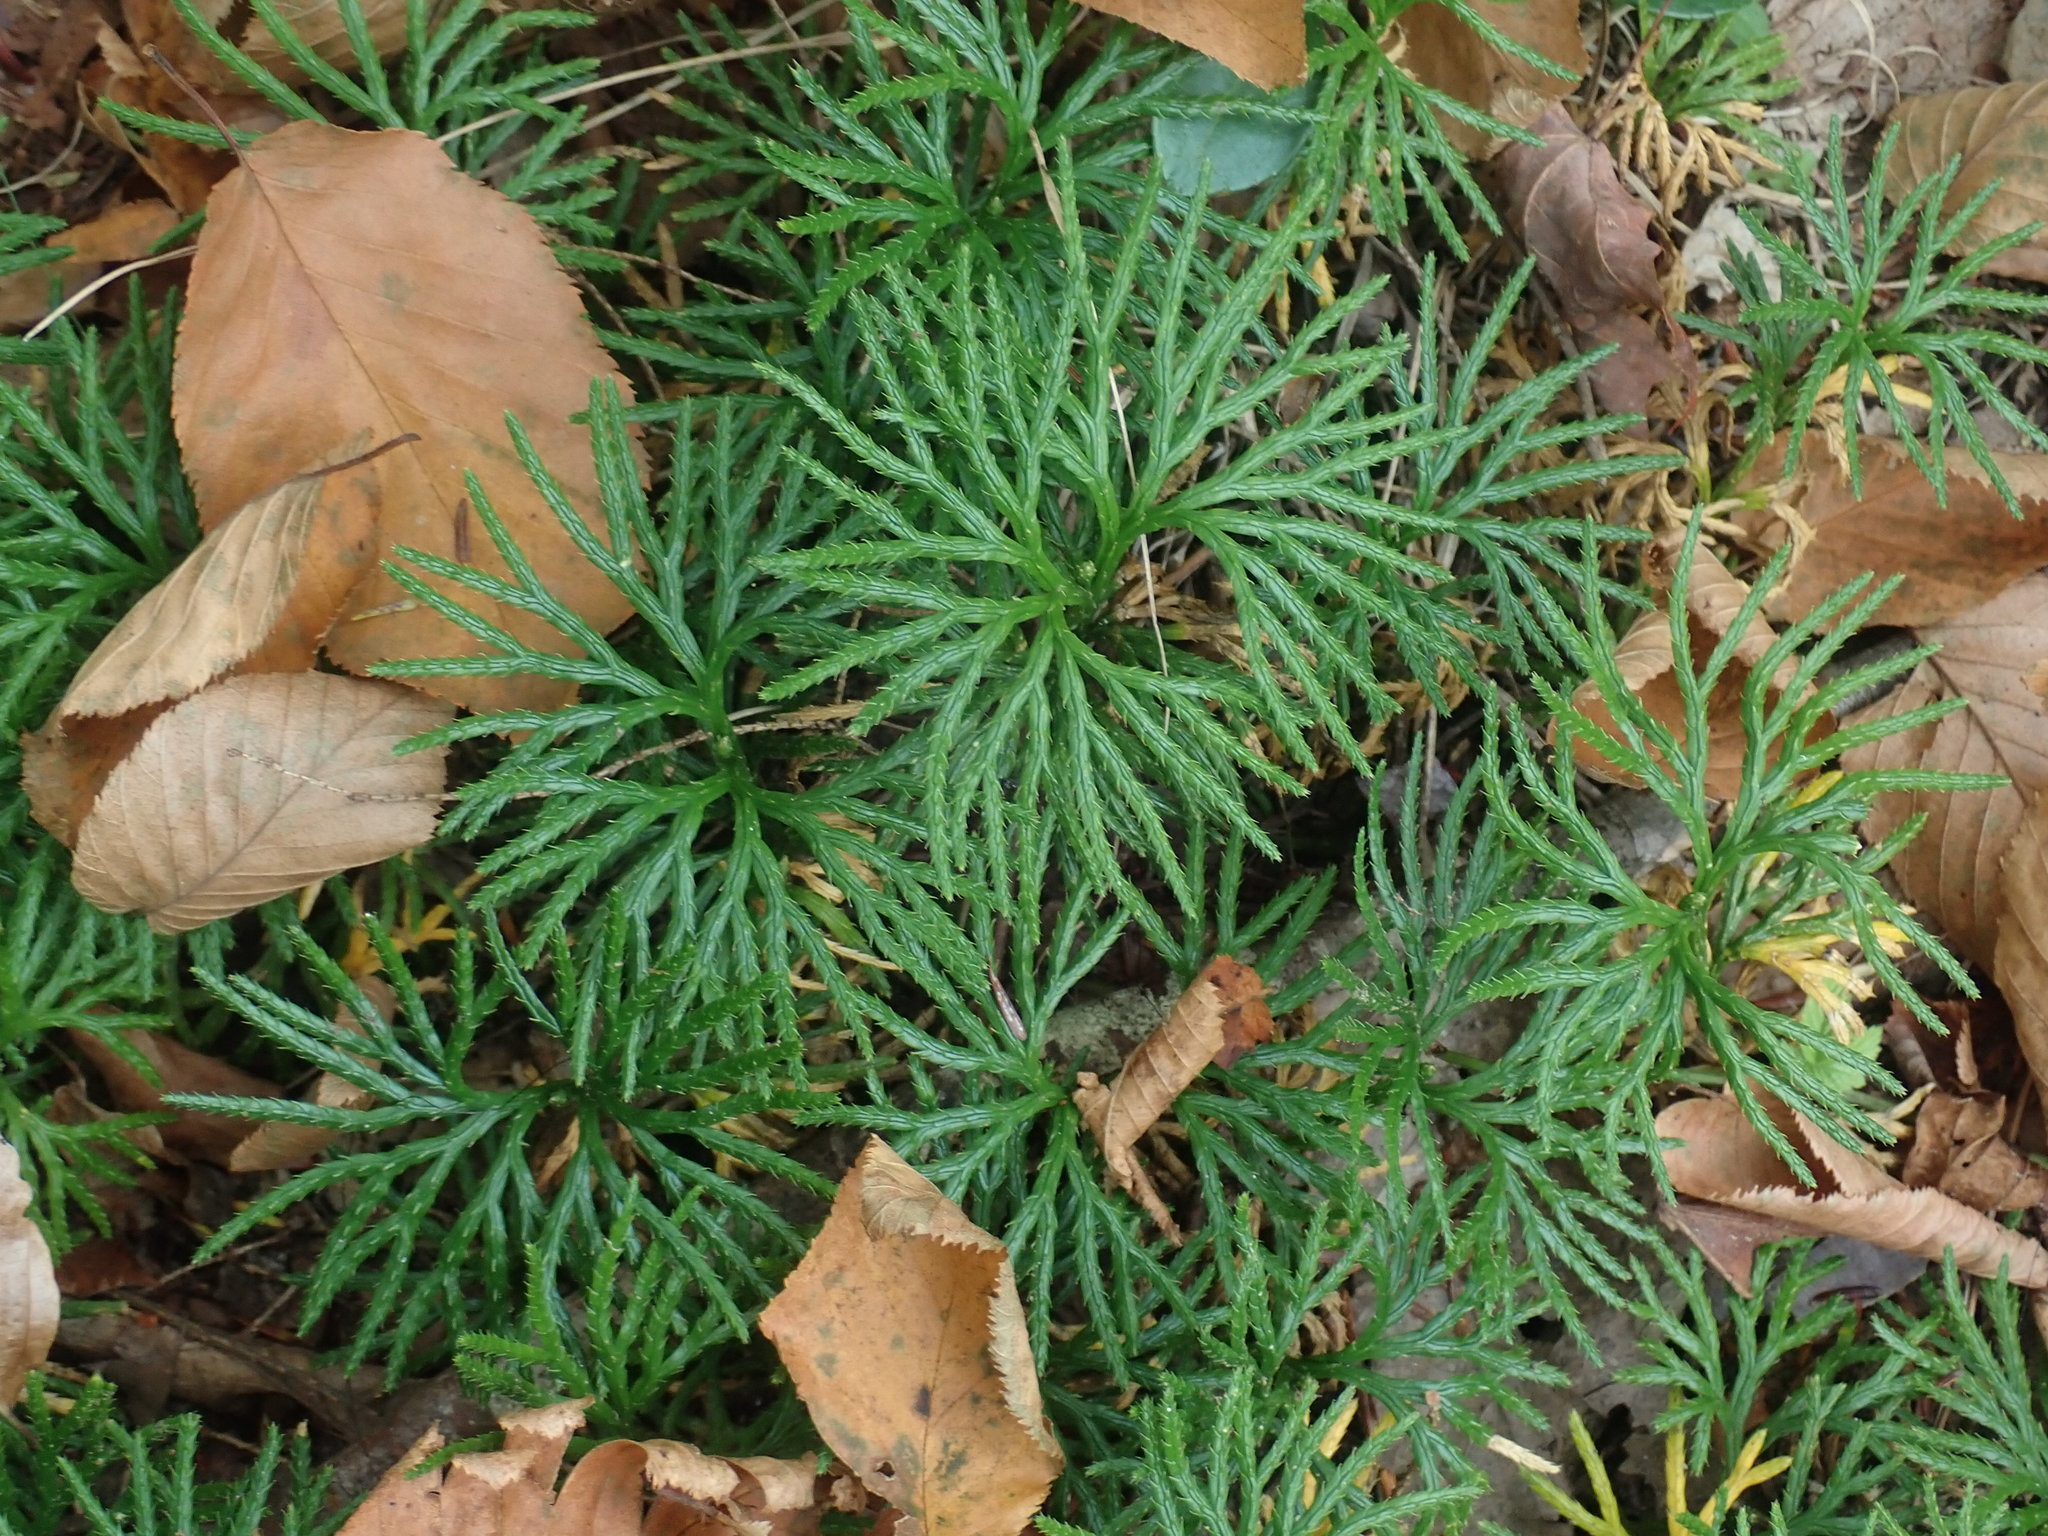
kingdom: Plantae
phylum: Tracheophyta
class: Lycopodiopsida
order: Lycopodiales
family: Lycopodiaceae
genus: Diphasiastrum
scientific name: Diphasiastrum digitatum
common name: Southern running-pine
